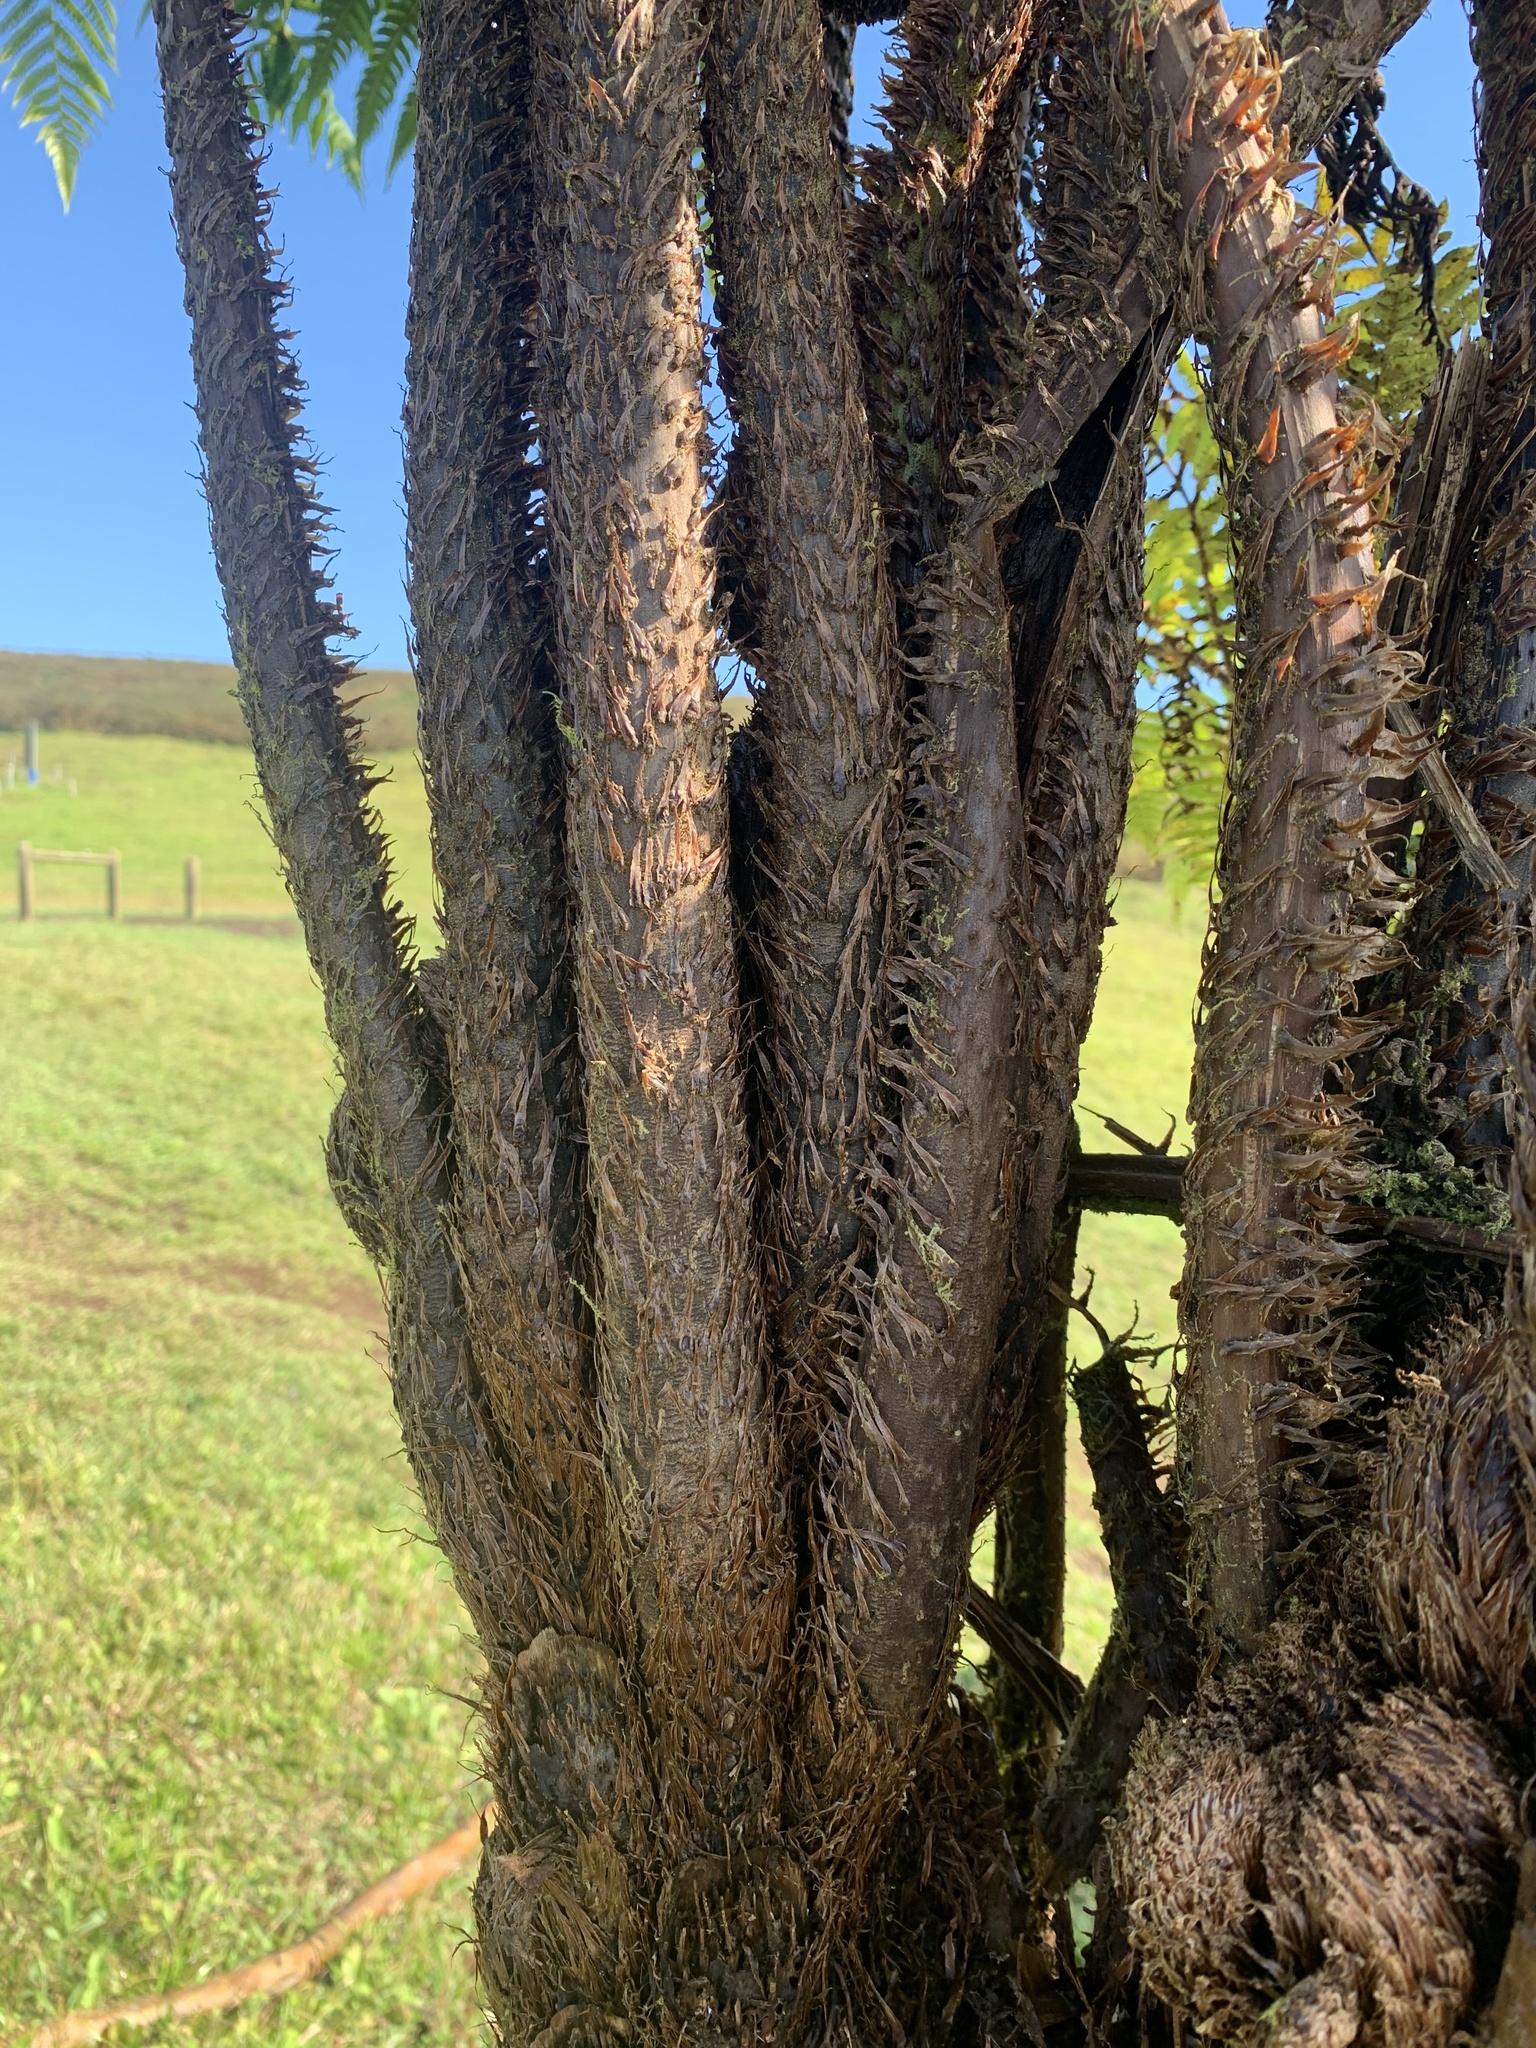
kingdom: Plantae
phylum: Tracheophyta
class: Polypodiopsida
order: Cyatheales
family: Cyatheaceae
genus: Cyathea
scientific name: Cyathea weatherbyana
